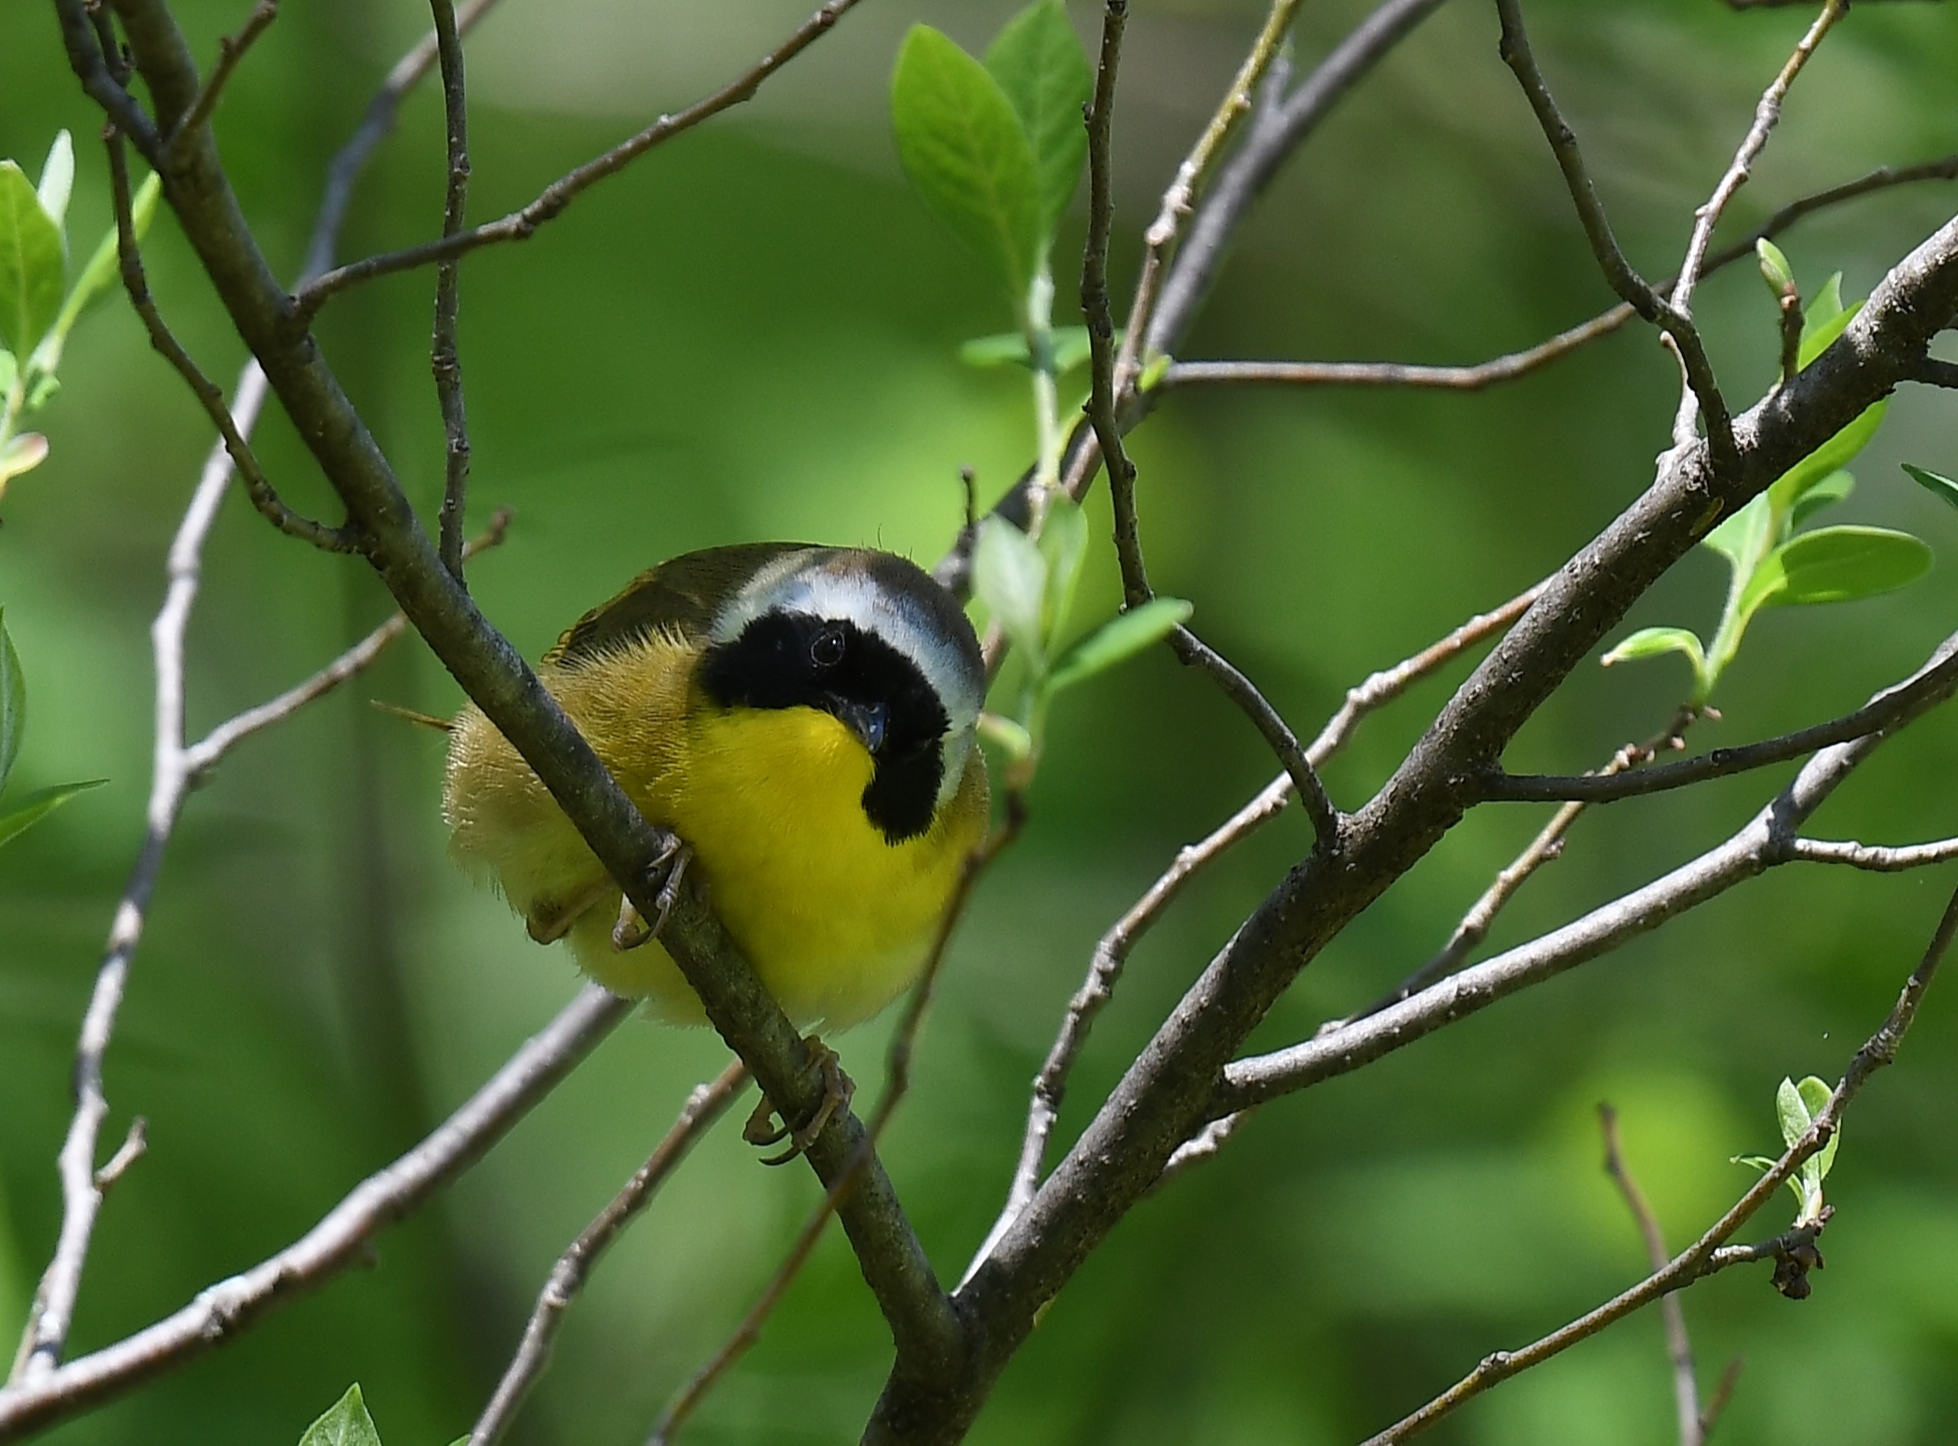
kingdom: Animalia
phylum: Chordata
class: Aves
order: Passeriformes
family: Parulidae
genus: Geothlypis
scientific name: Geothlypis trichas
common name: Common yellowthroat
